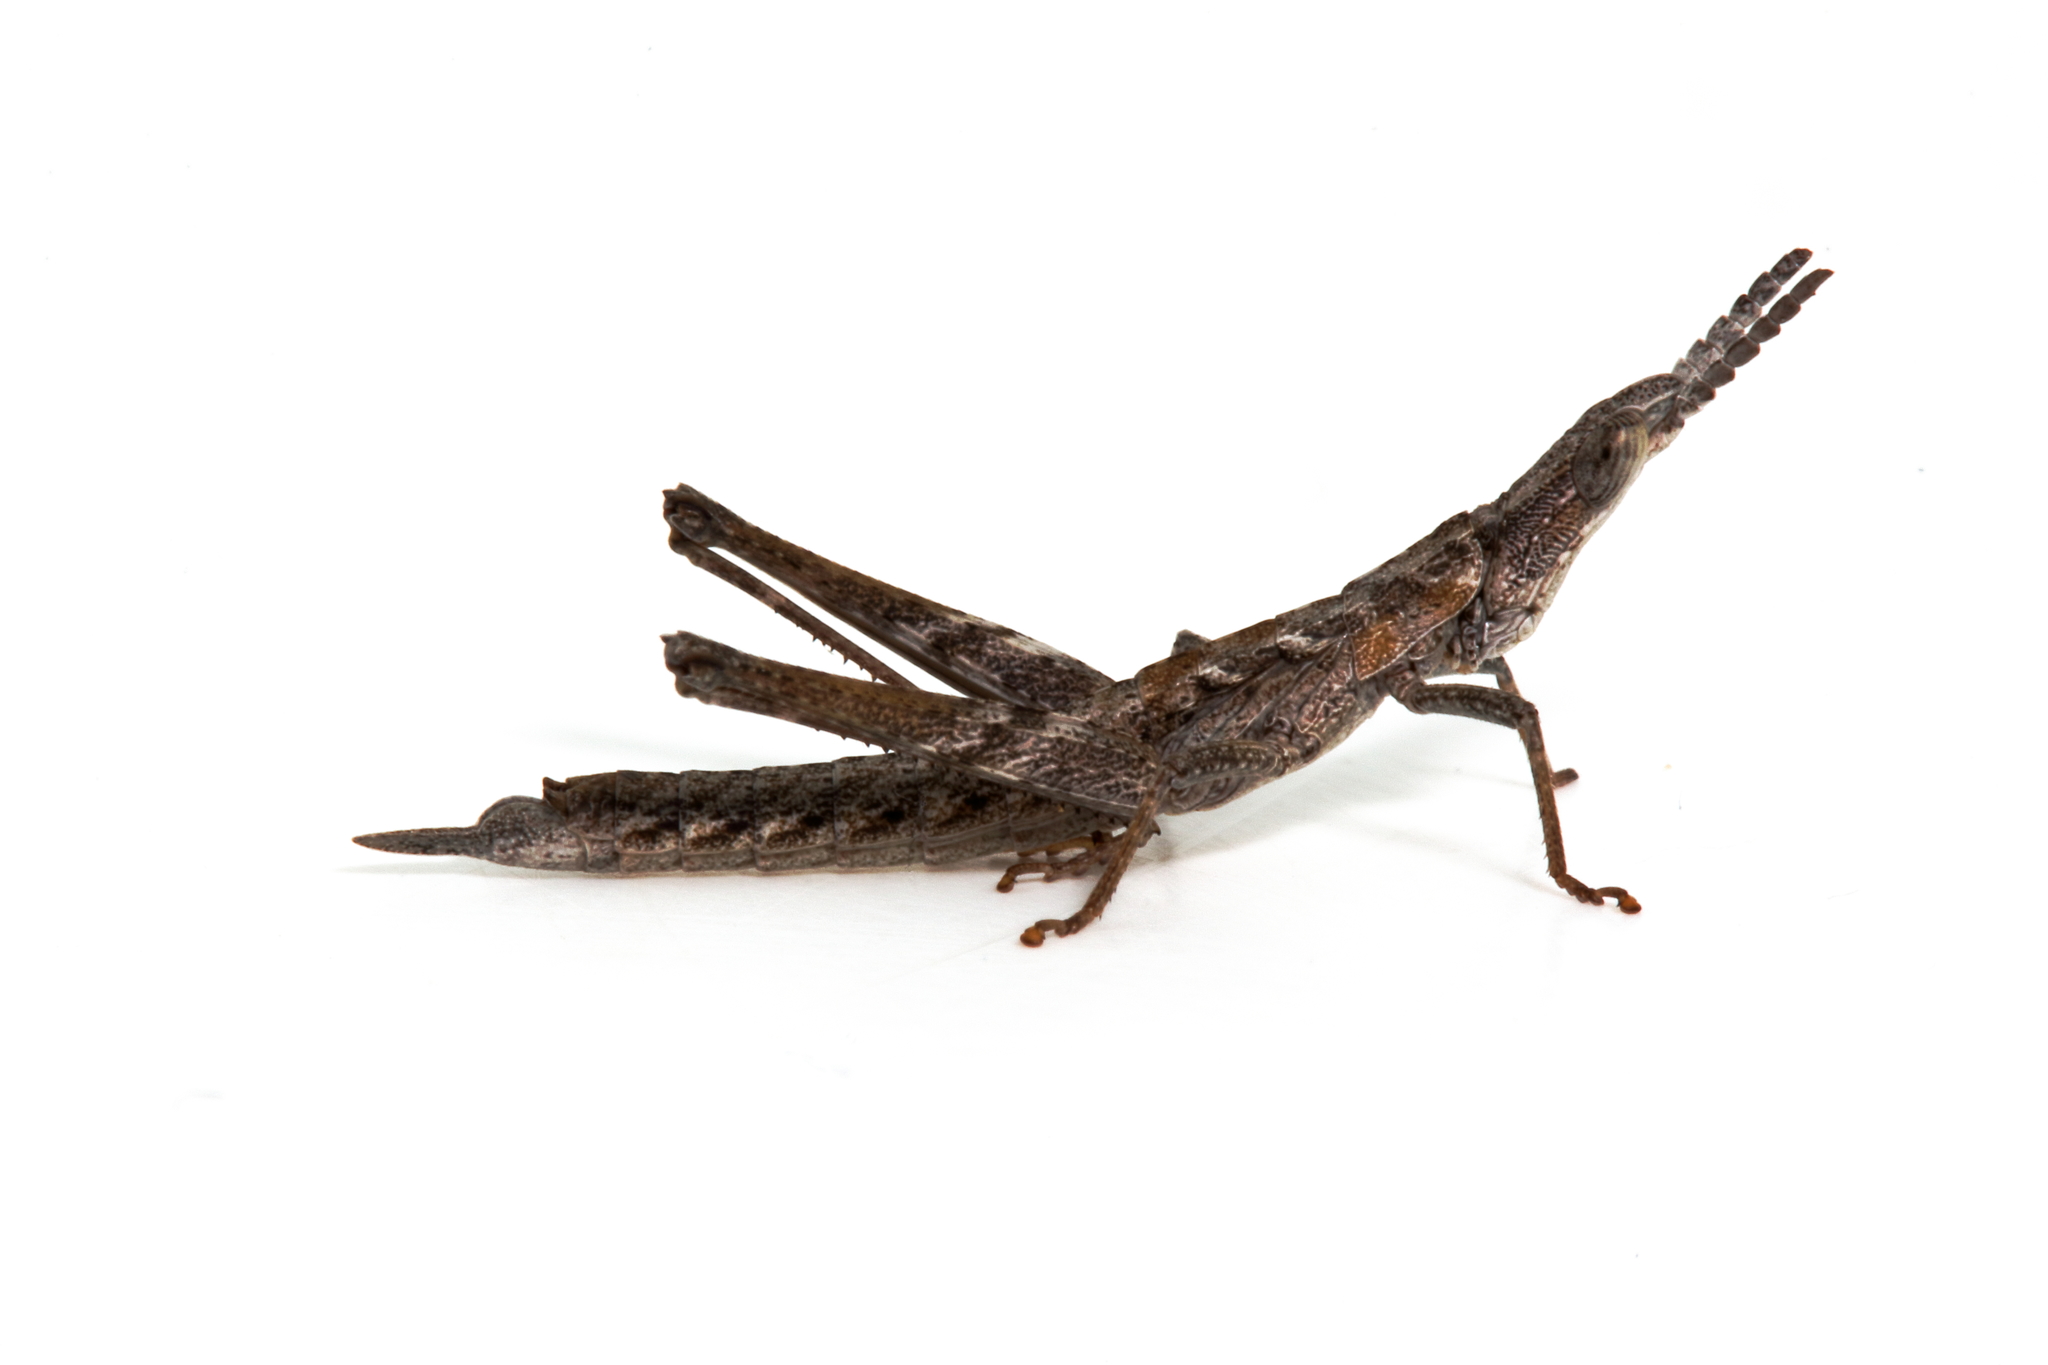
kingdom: Animalia
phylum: Arthropoda
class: Insecta
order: Orthoptera
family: Morabidae
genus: Keyacris
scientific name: Keyacris scurra
